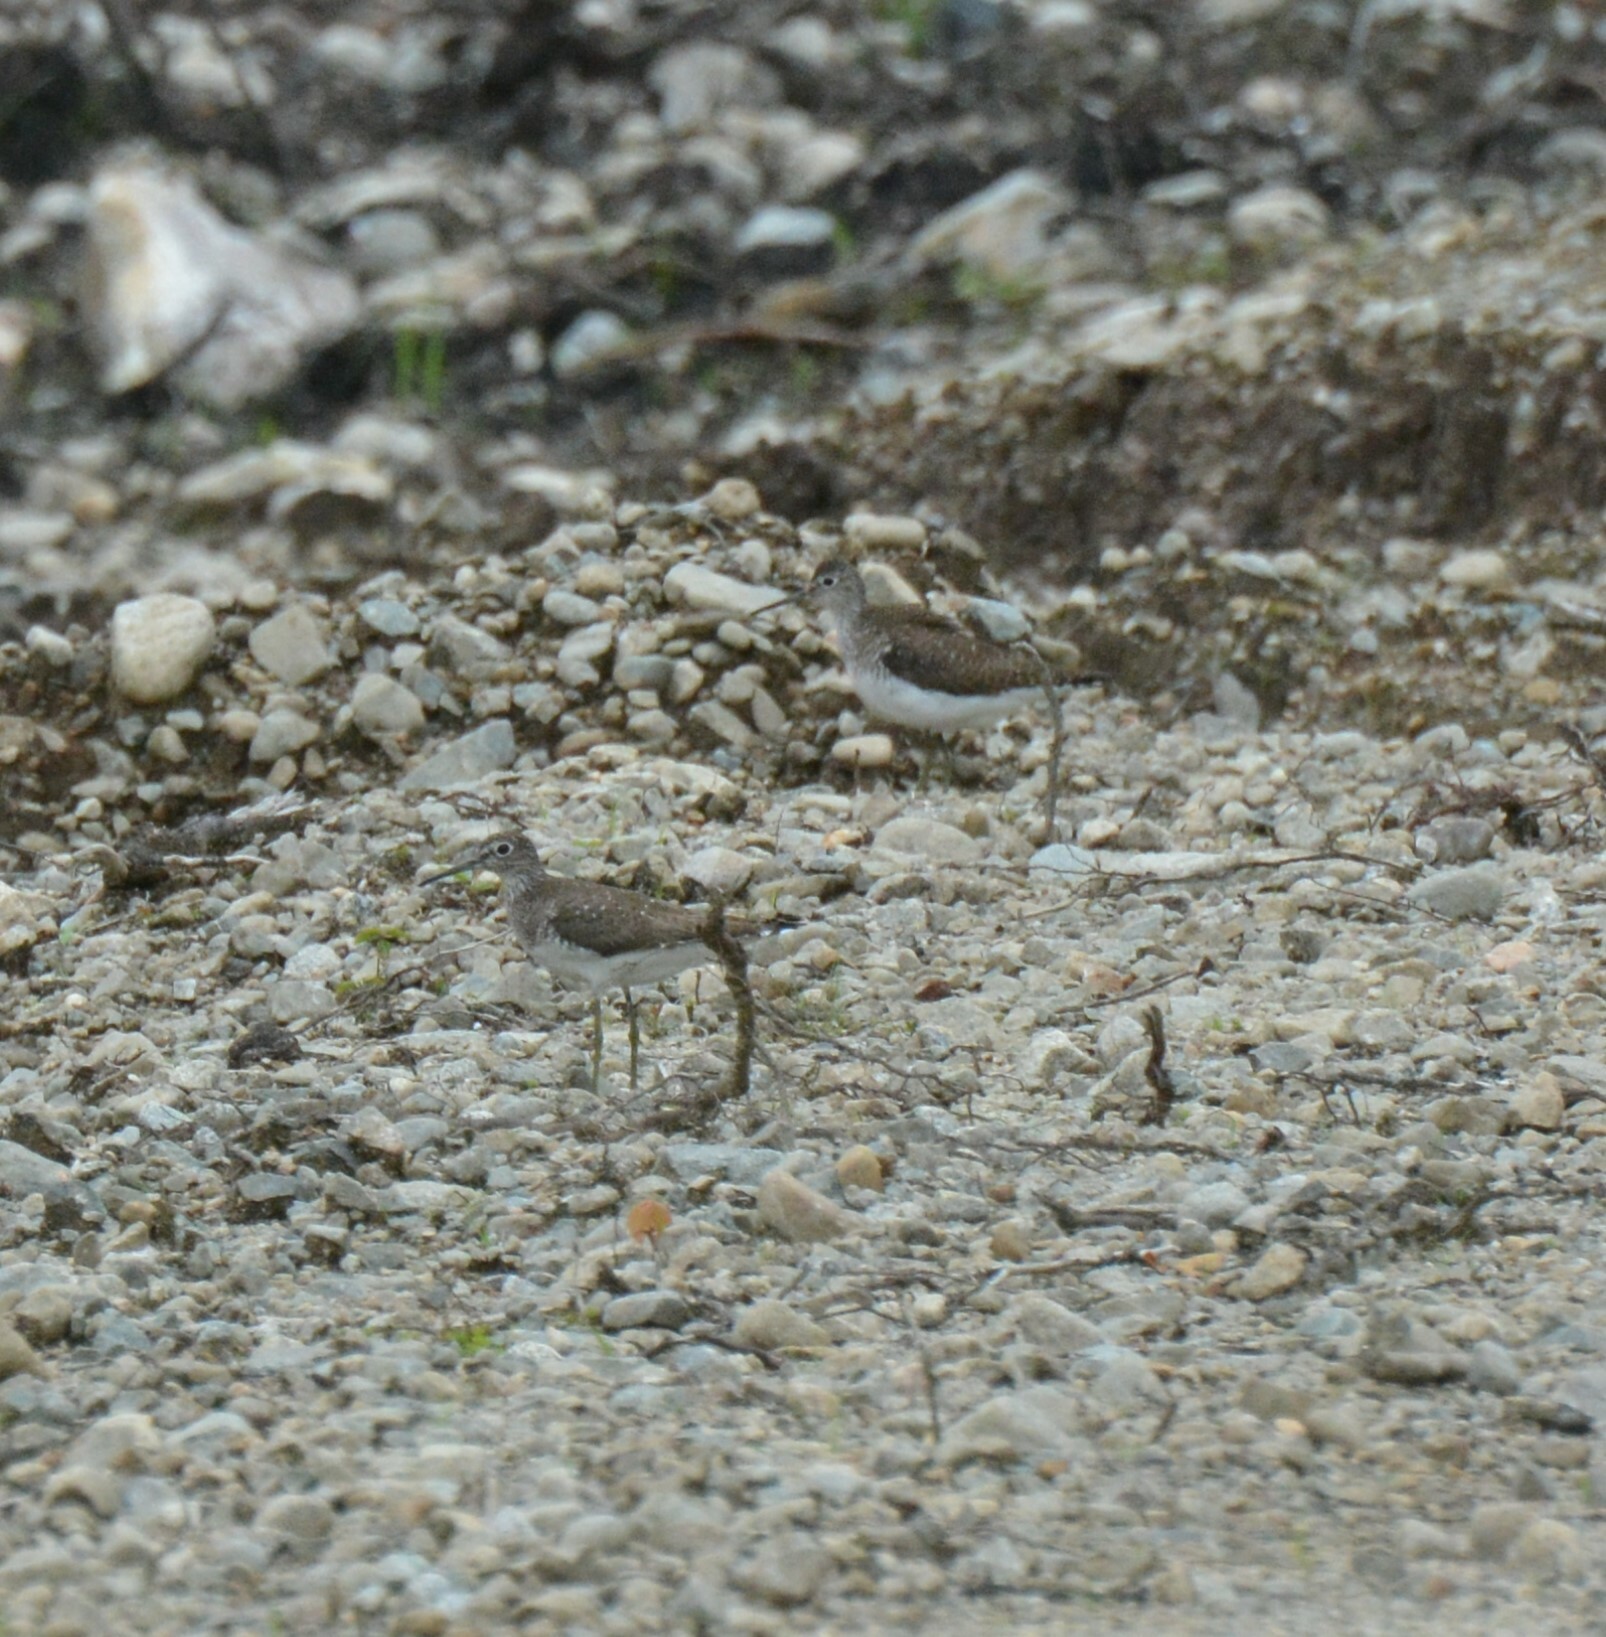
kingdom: Animalia
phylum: Chordata
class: Aves
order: Charadriiformes
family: Scolopacidae
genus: Tringa
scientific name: Tringa solitaria
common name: Solitary sandpiper
